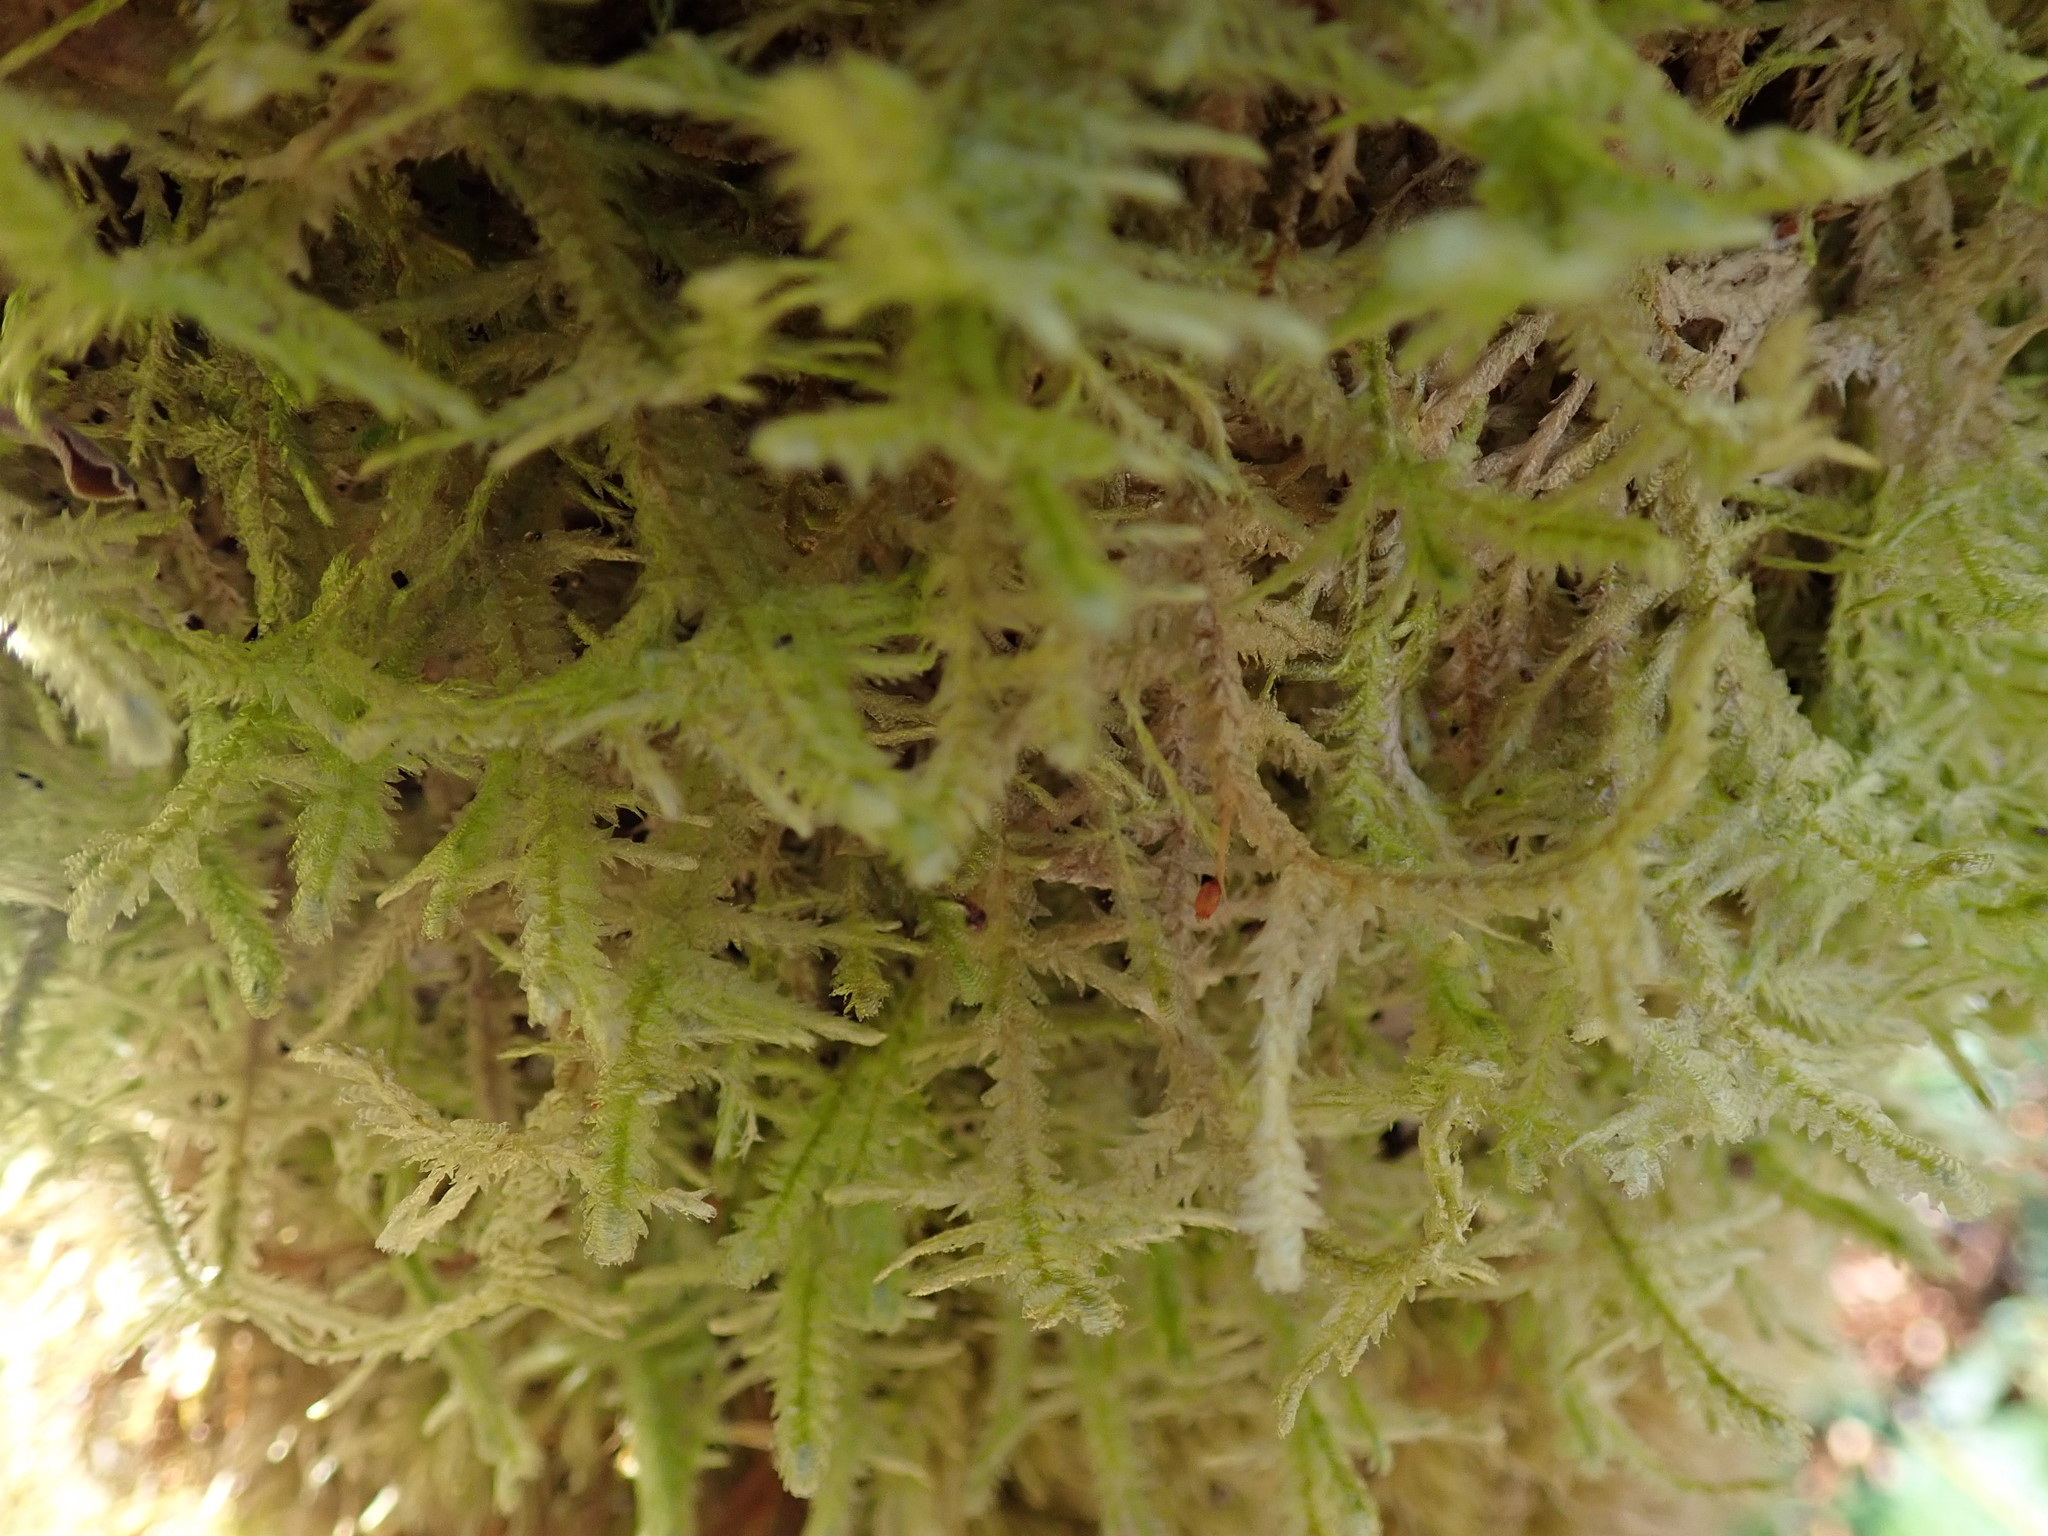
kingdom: Plantae
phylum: Bryophyta
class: Bryopsida
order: Hypnales
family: Neckeraceae
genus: Neckera
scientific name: Neckera douglasii
